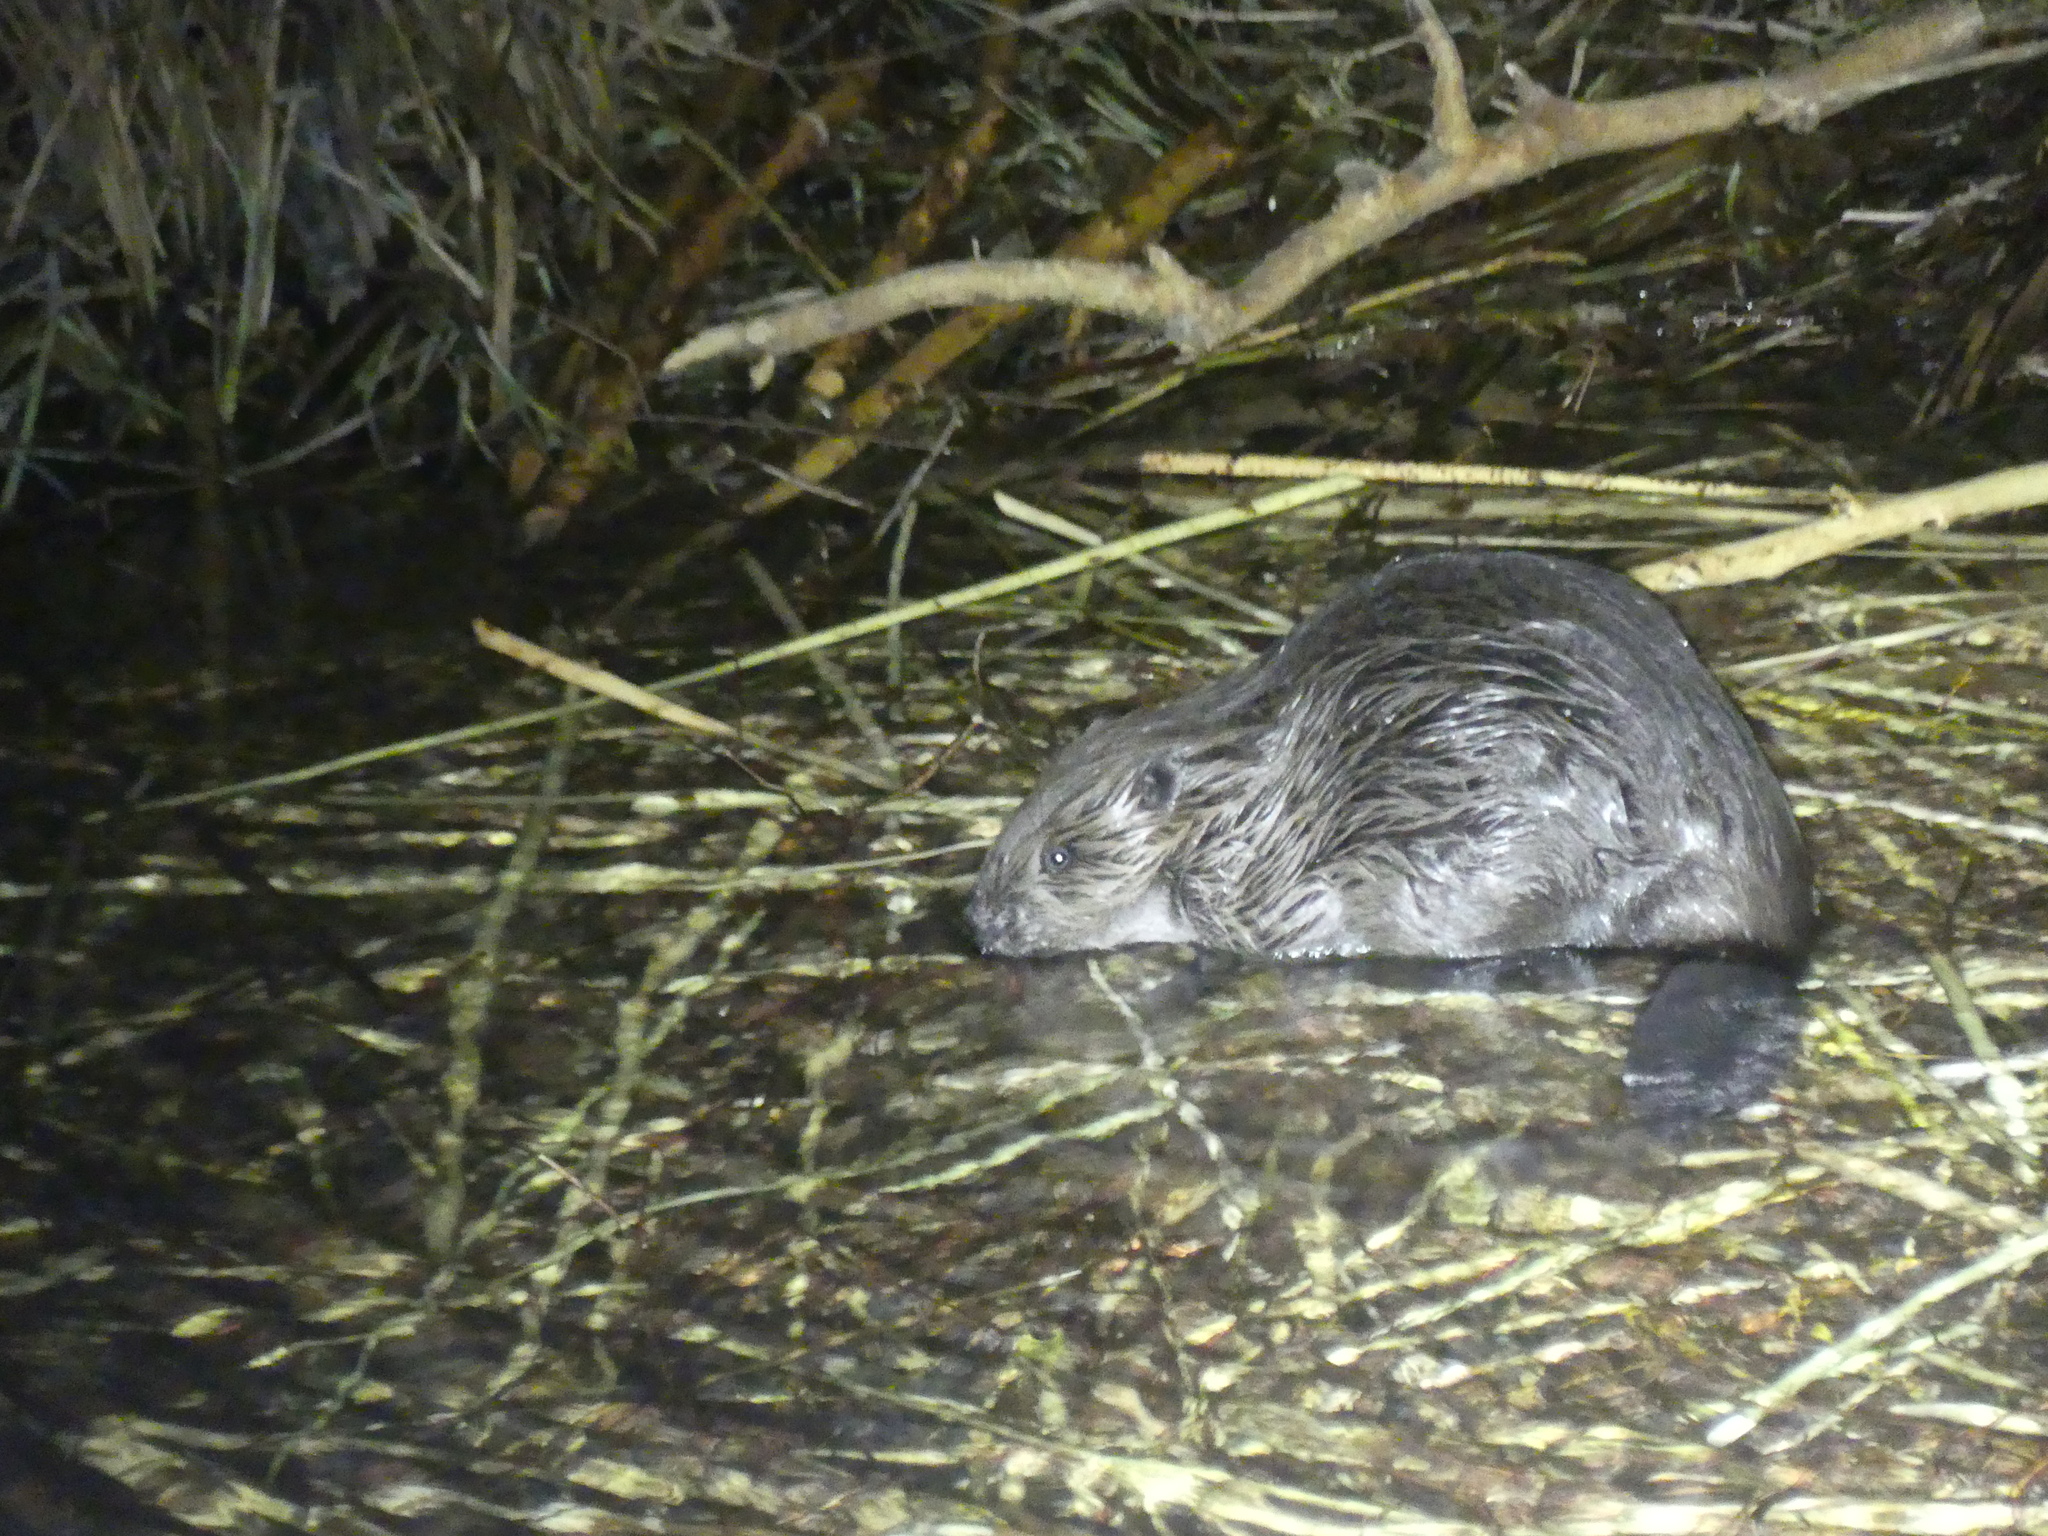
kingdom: Animalia
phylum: Chordata
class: Mammalia
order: Rodentia
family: Castoridae
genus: Castor
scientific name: Castor fiber
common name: Eurasian beaver
